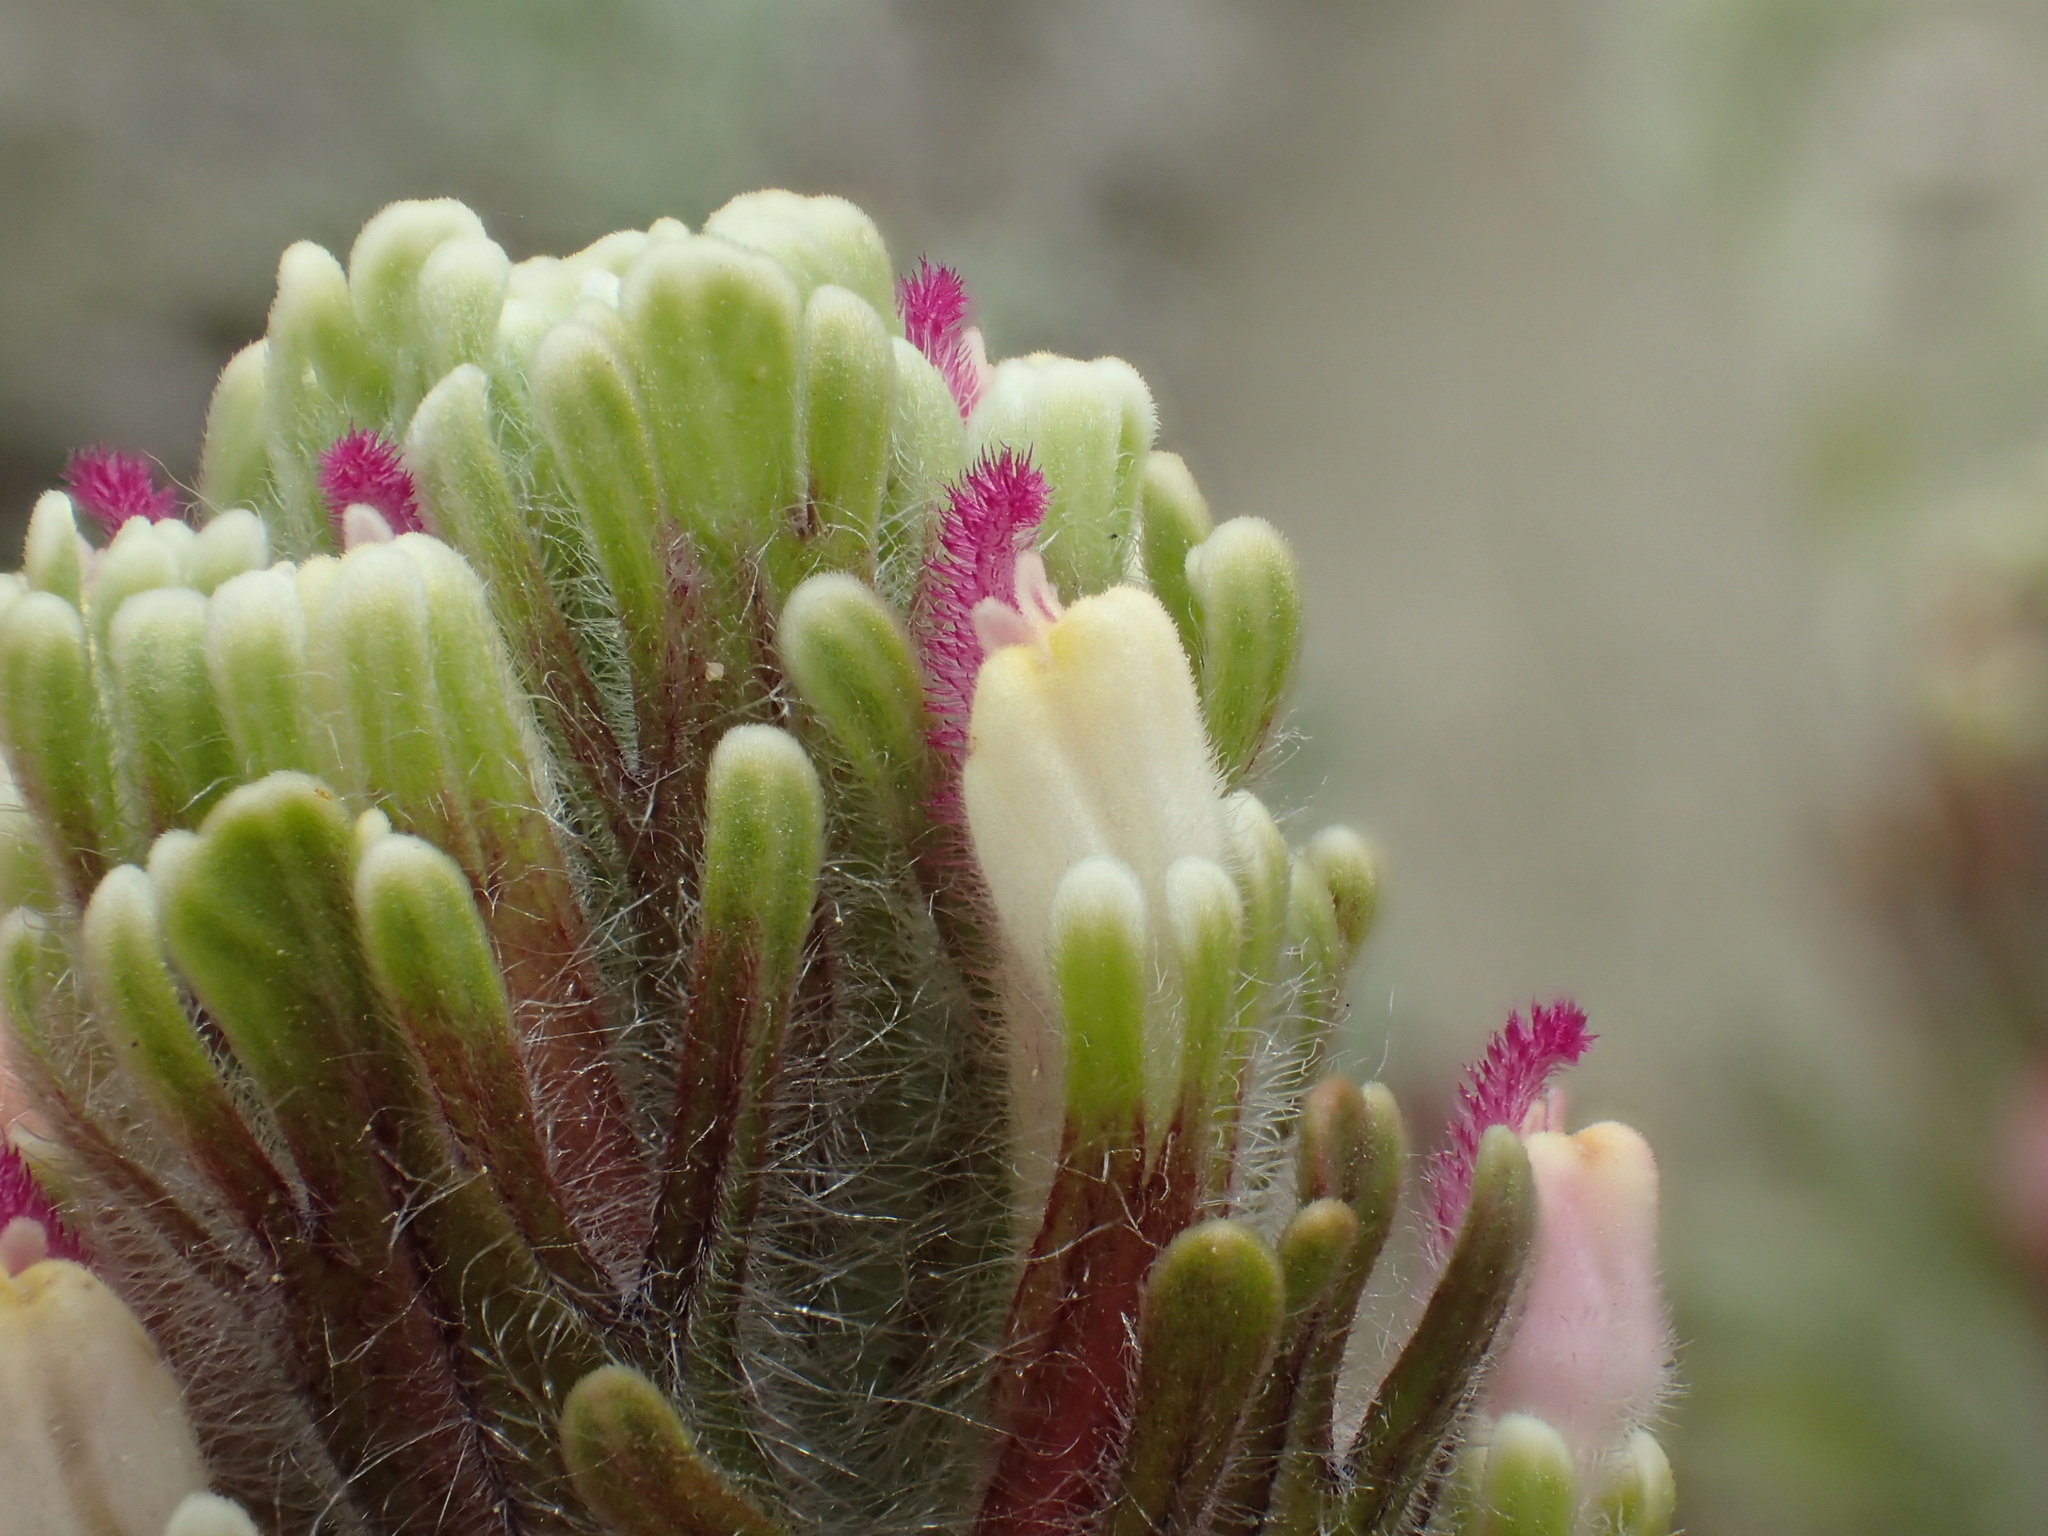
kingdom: Plantae
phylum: Tracheophyta
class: Magnoliopsida
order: Lamiales
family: Orobanchaceae
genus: Castilleja
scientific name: Castilleja exserta
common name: Purple owl-clover
